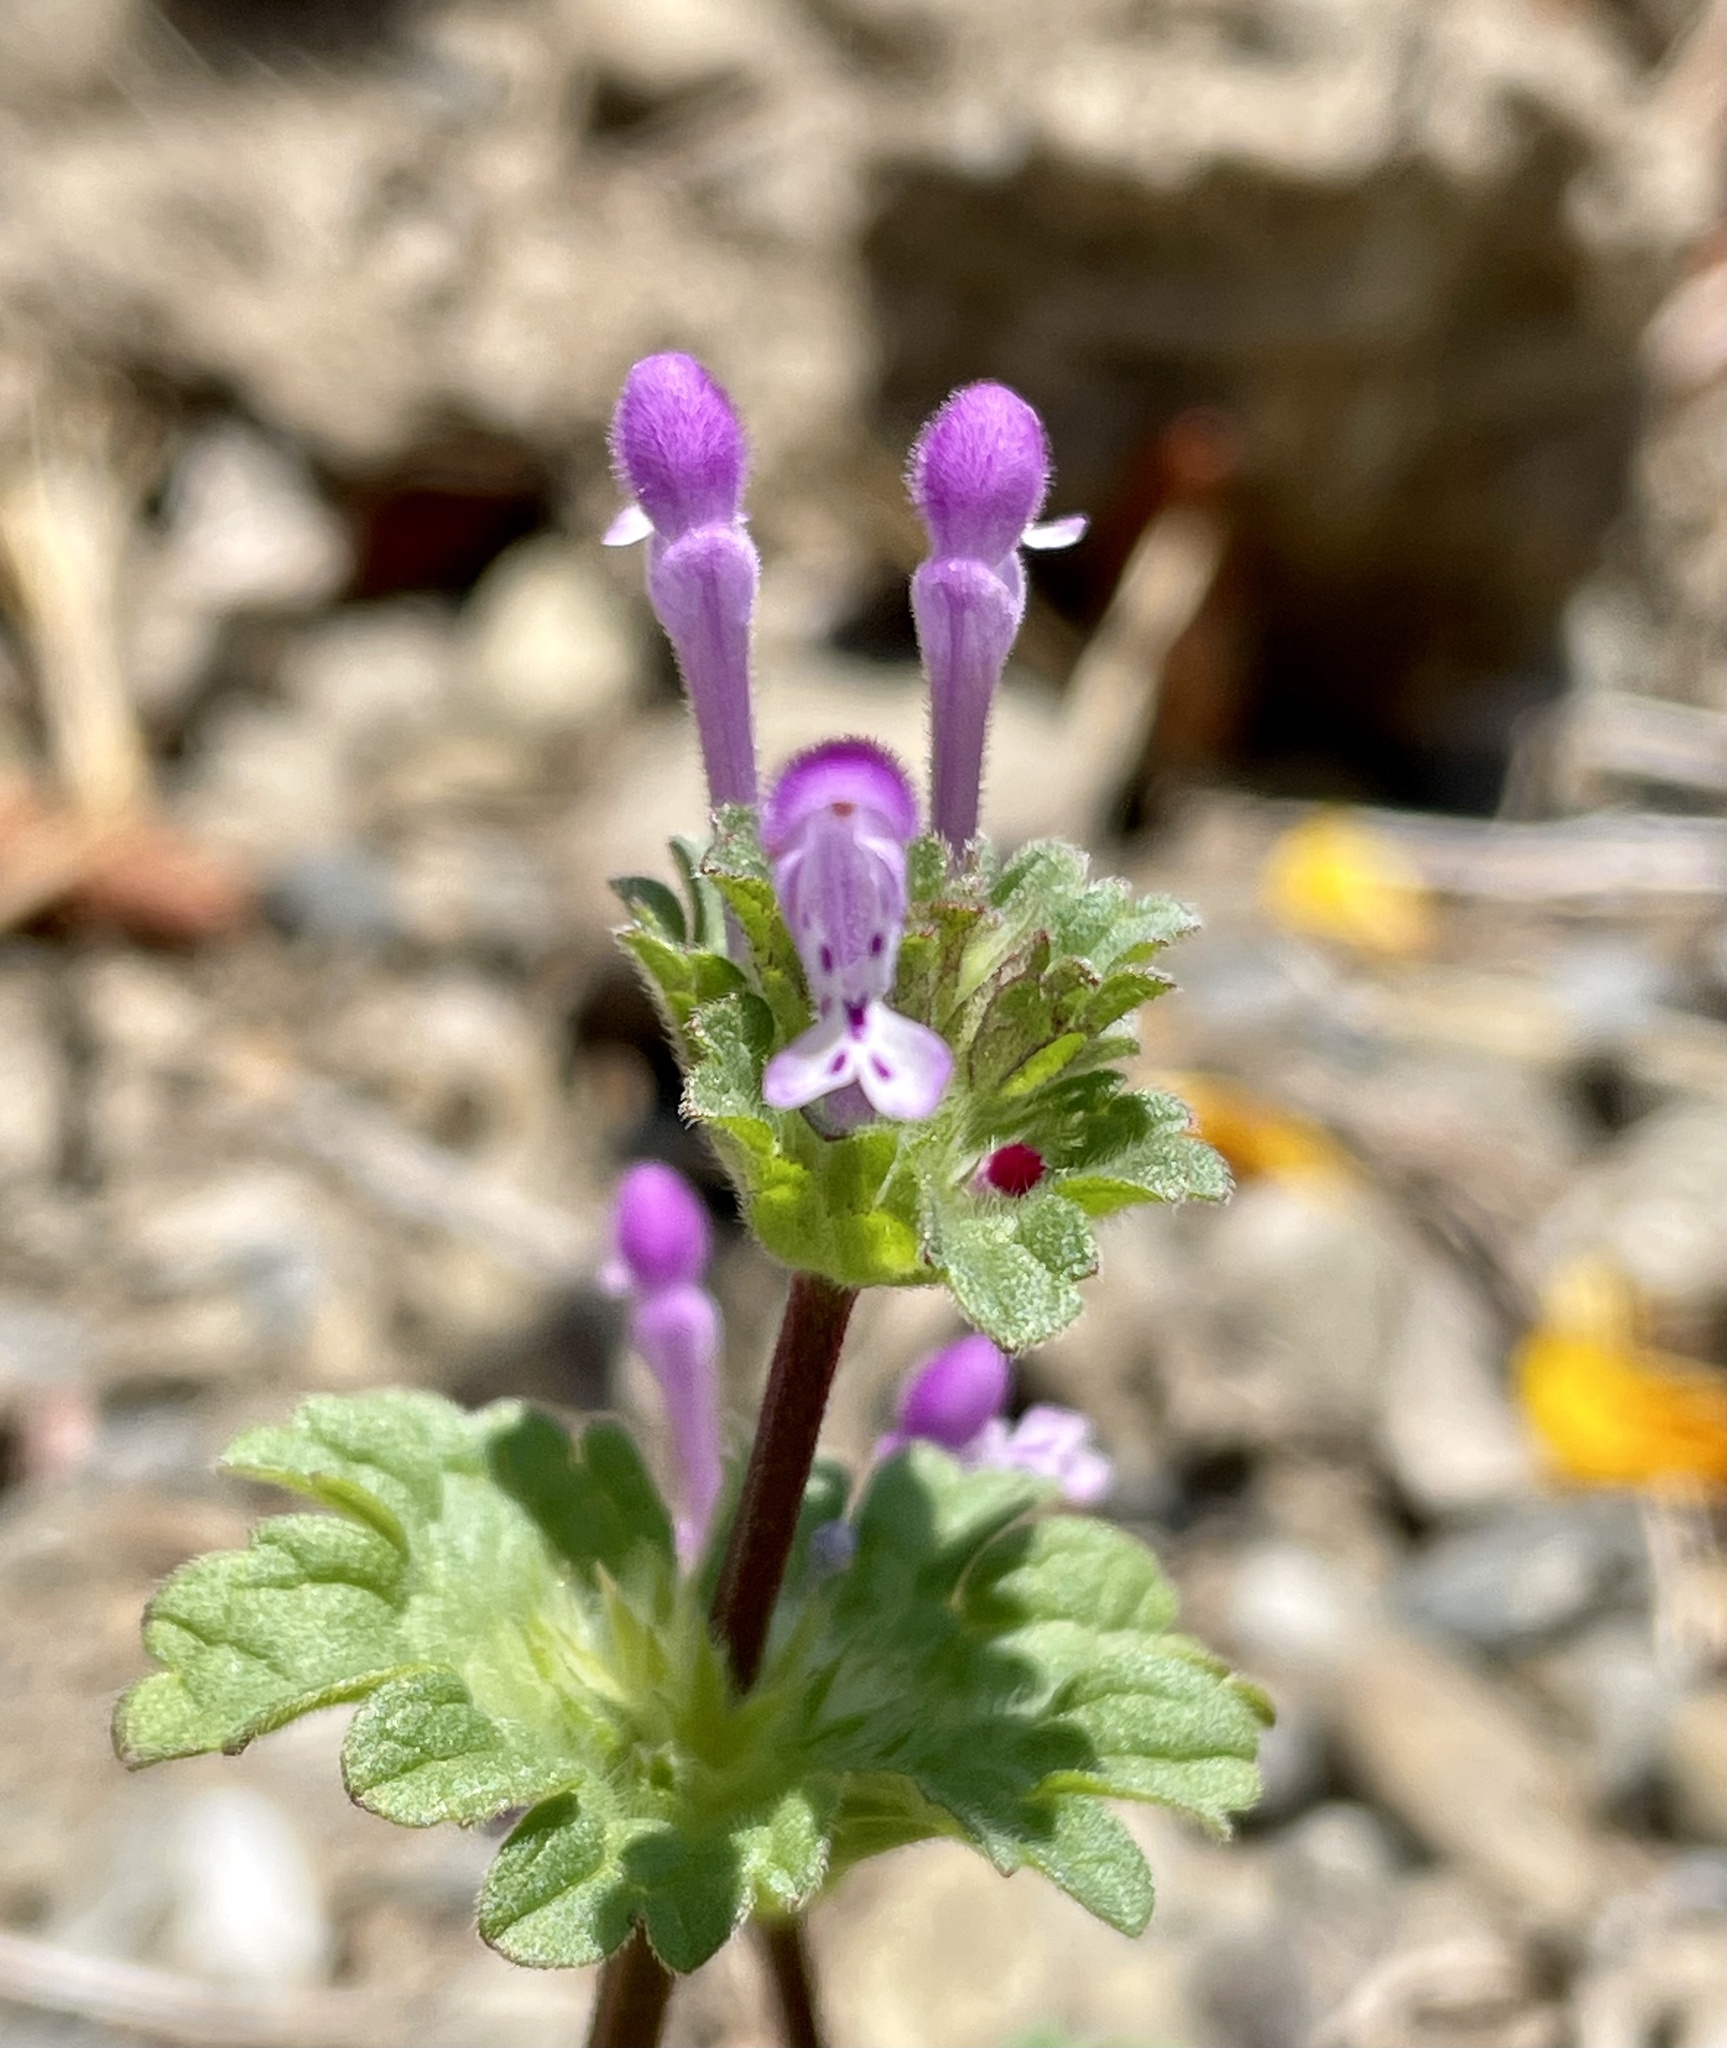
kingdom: Plantae
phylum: Tracheophyta
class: Magnoliopsida
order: Lamiales
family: Lamiaceae
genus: Lamium
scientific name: Lamium amplexicaule
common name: Henbit dead-nettle
